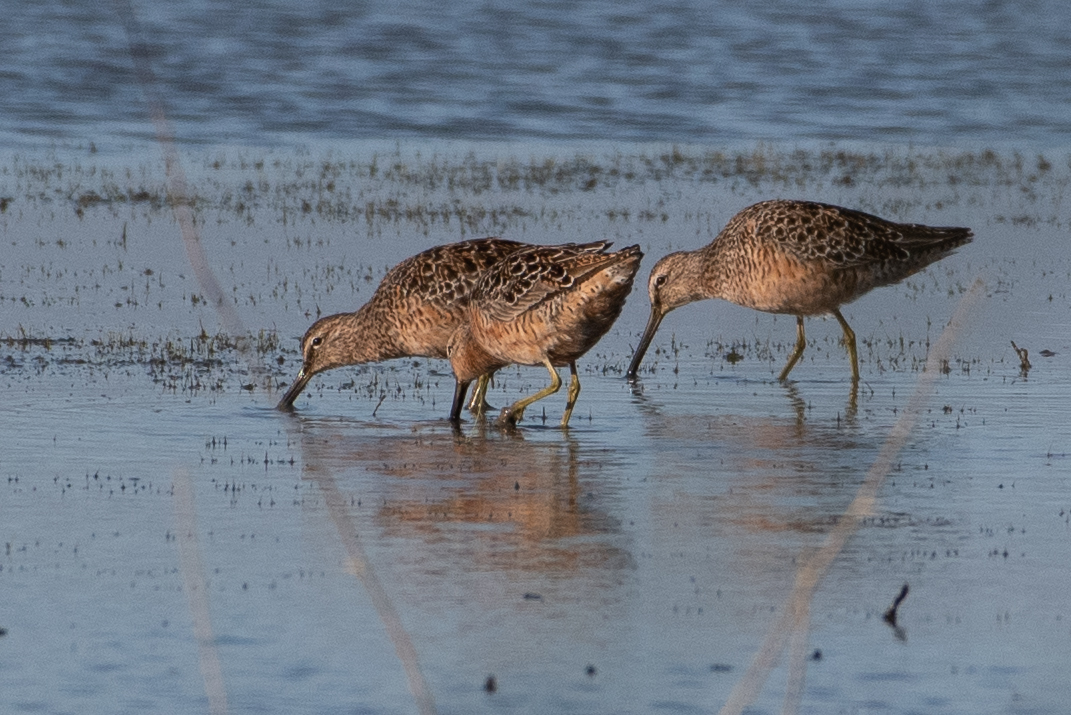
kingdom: Animalia
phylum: Chordata
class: Aves
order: Charadriiformes
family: Scolopacidae
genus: Limnodromus
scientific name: Limnodromus scolopaceus
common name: Long-billed dowitcher
